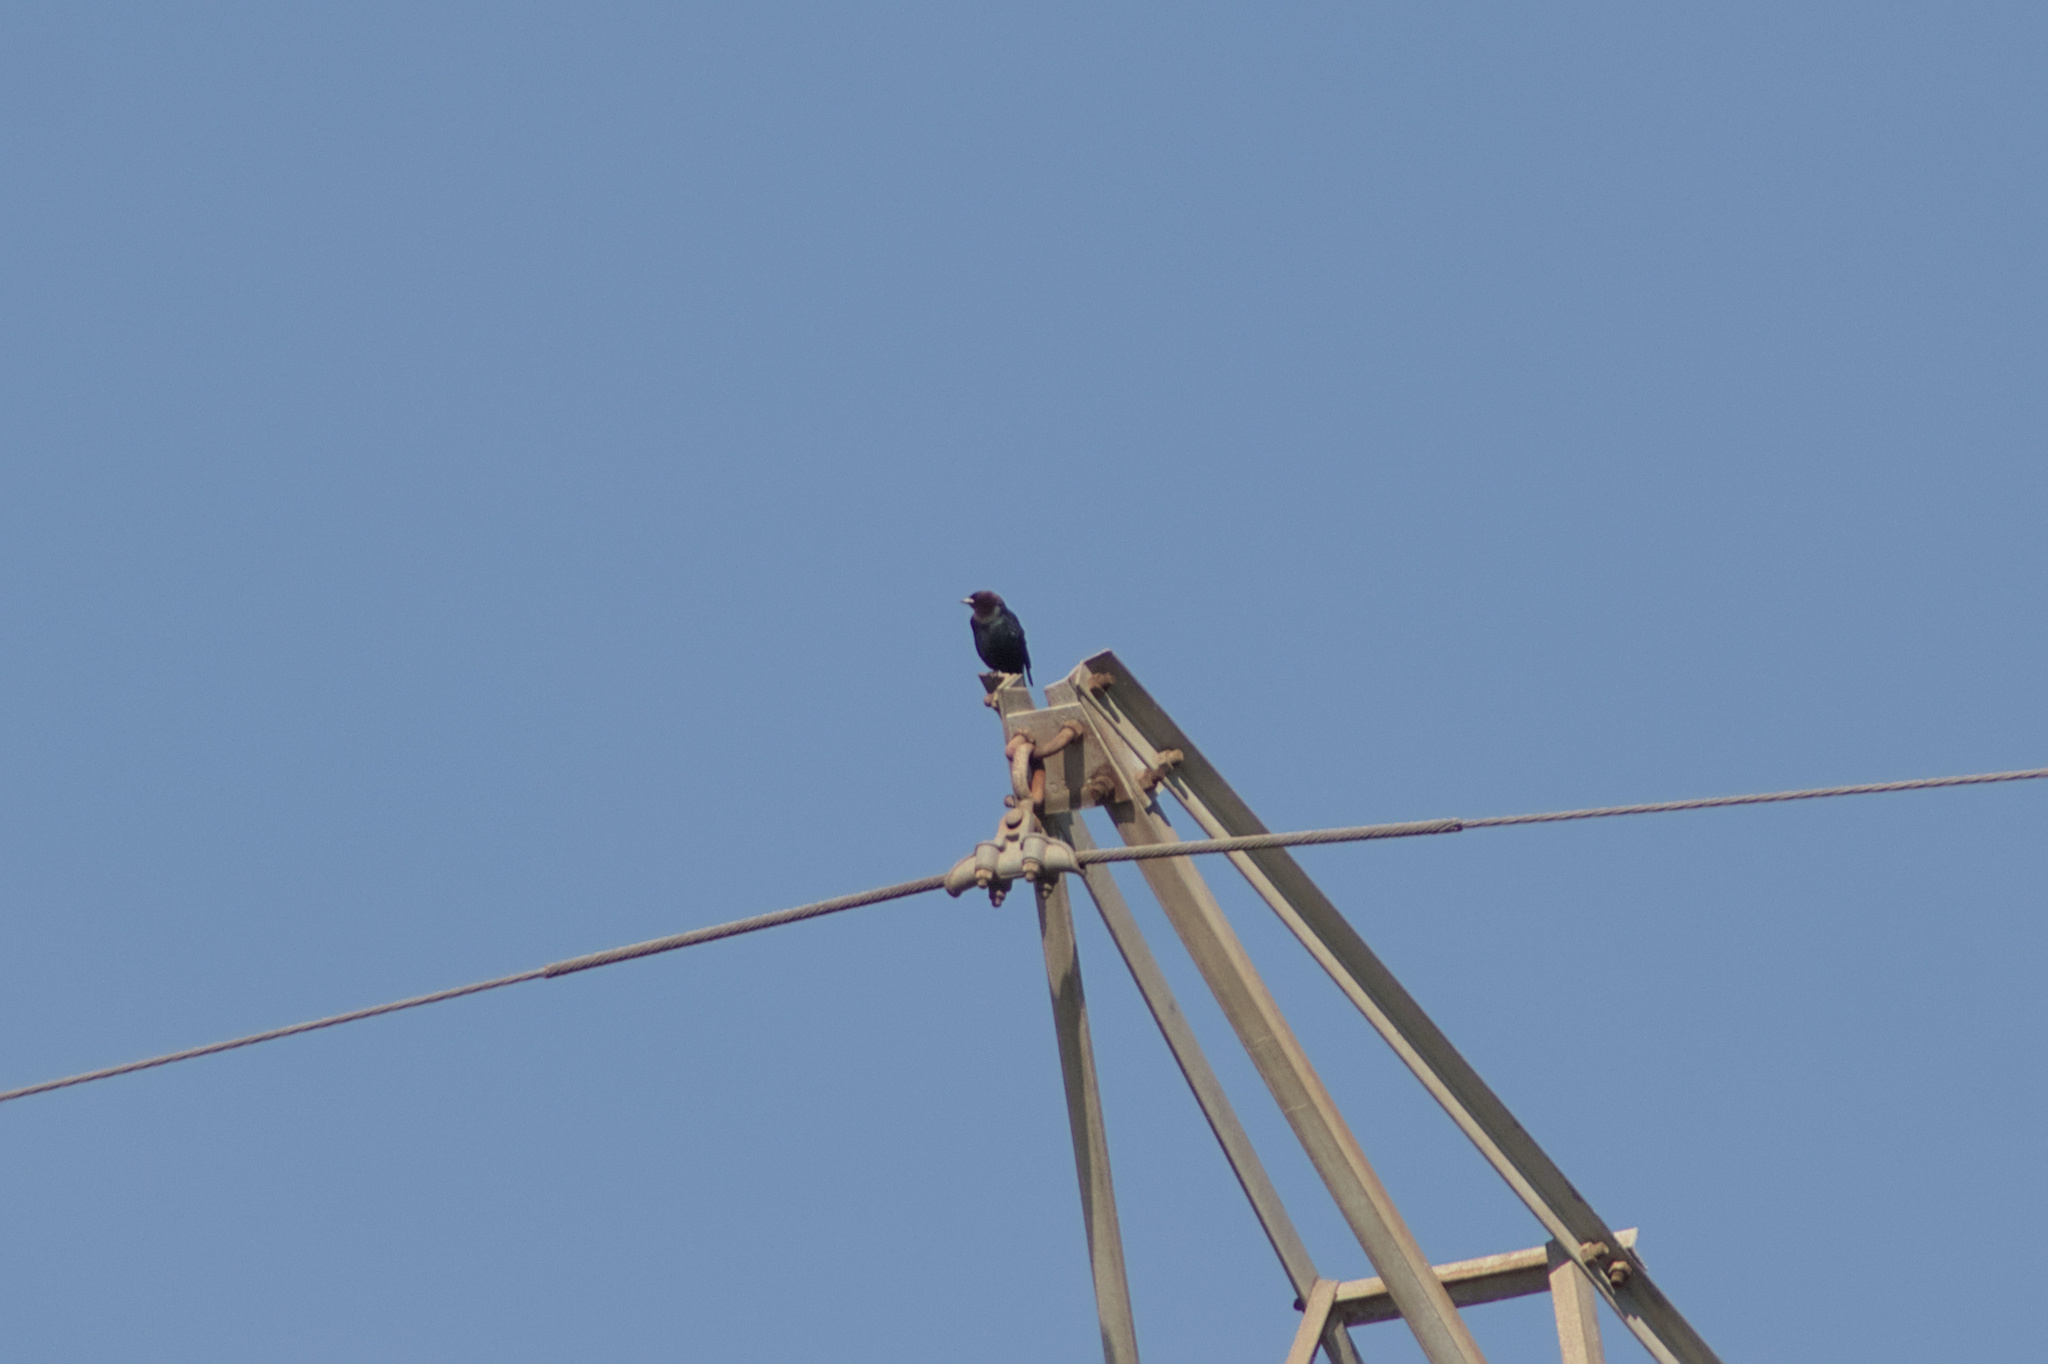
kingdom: Animalia
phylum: Chordata
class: Aves
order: Passeriformes
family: Icteridae
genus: Molothrus
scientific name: Molothrus ater
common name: Brown-headed cowbird
